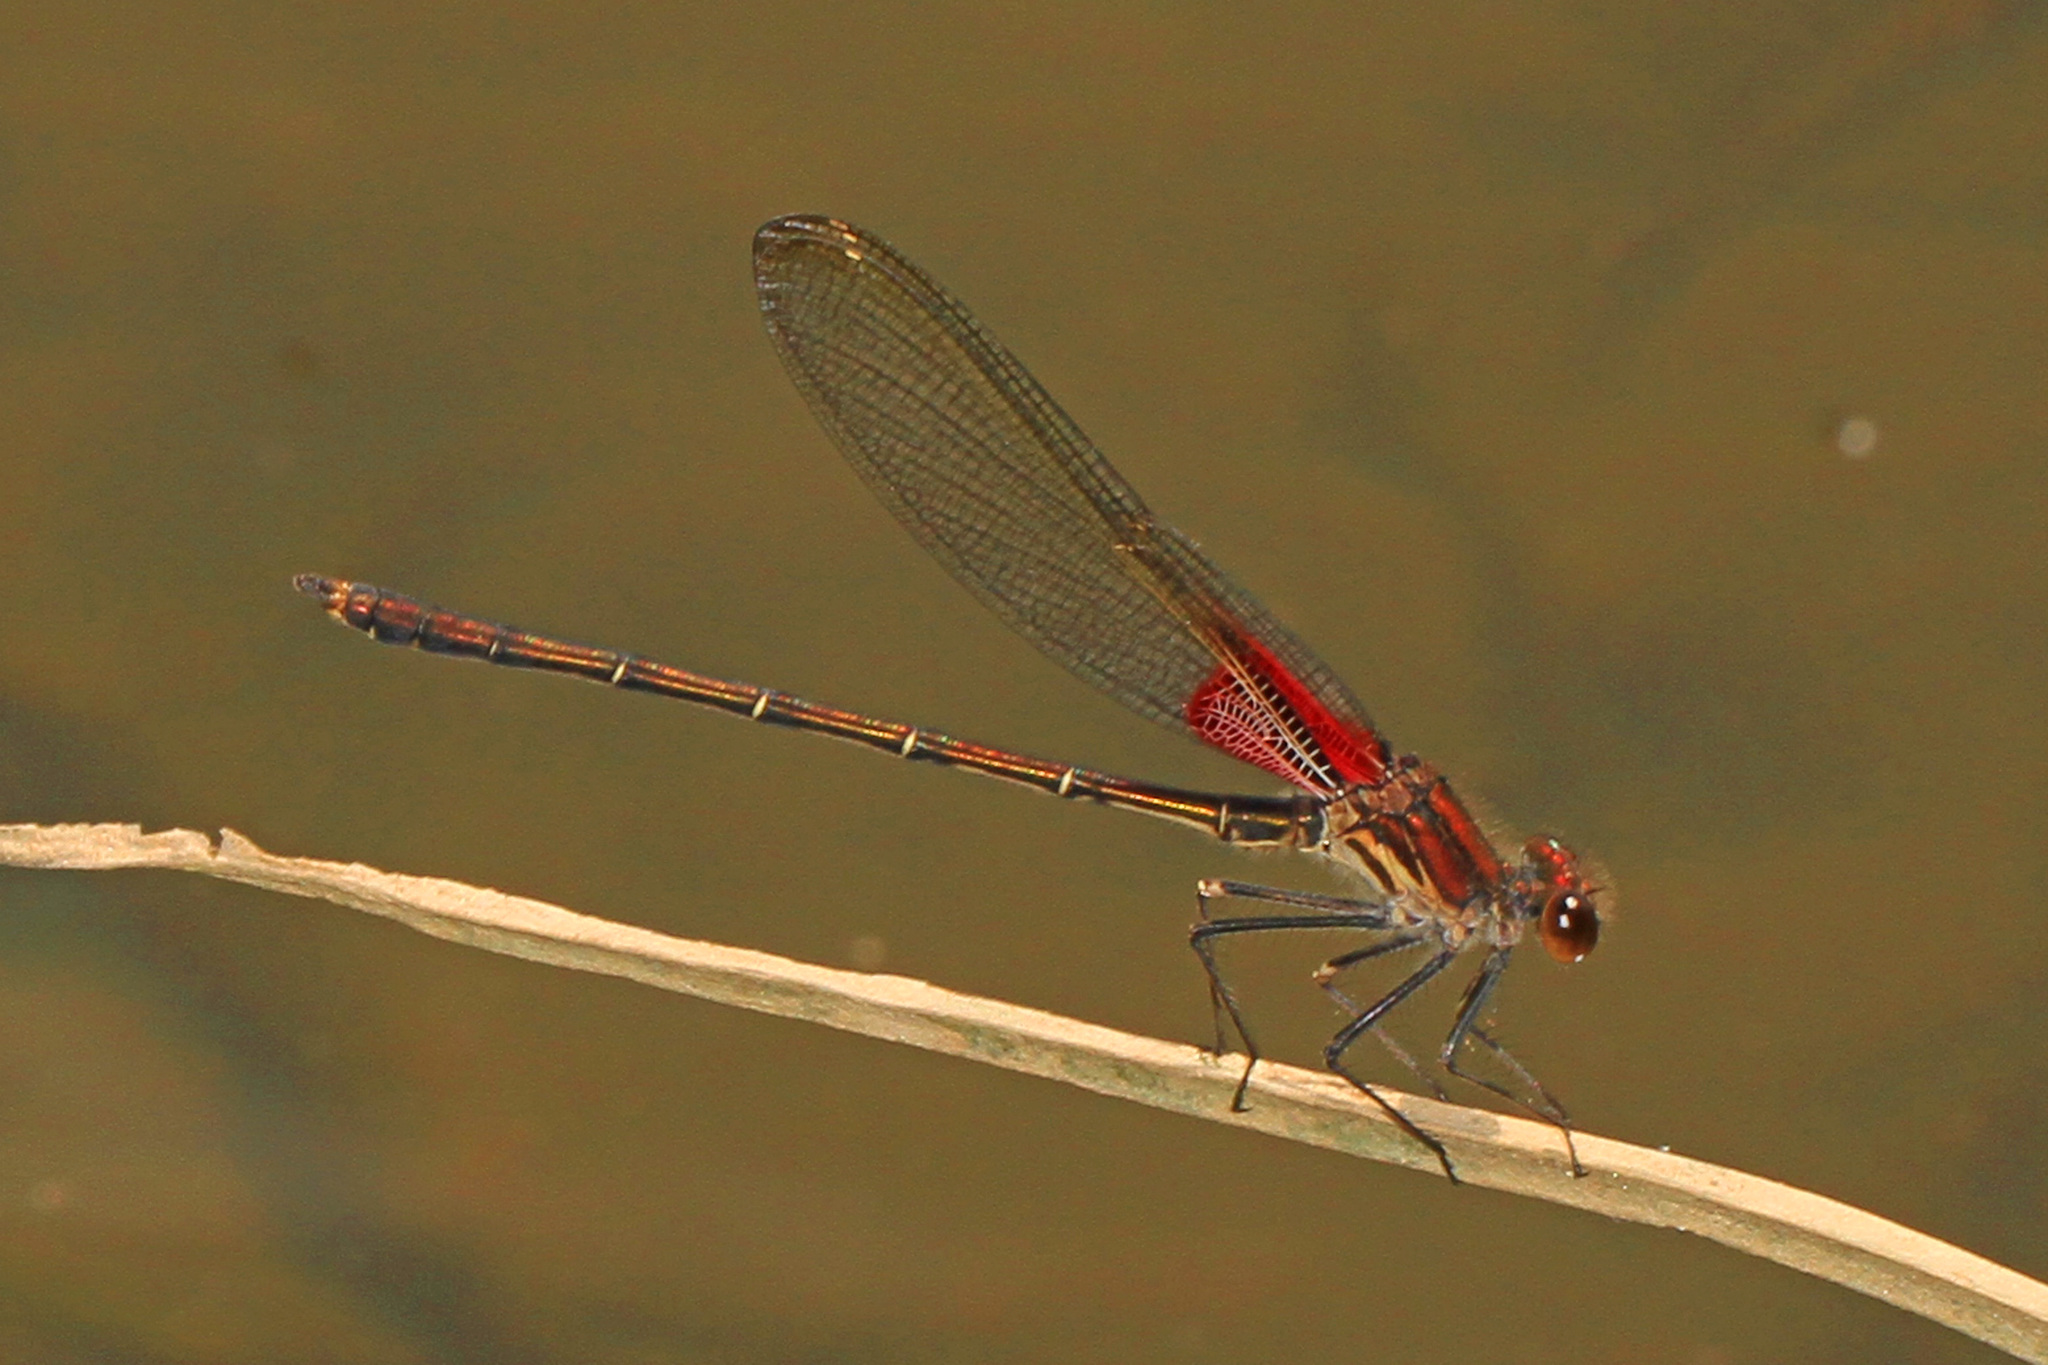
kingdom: Animalia
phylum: Arthropoda
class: Insecta
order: Odonata
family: Calopterygidae
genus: Hetaerina
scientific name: Hetaerina americana
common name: American rubyspot
